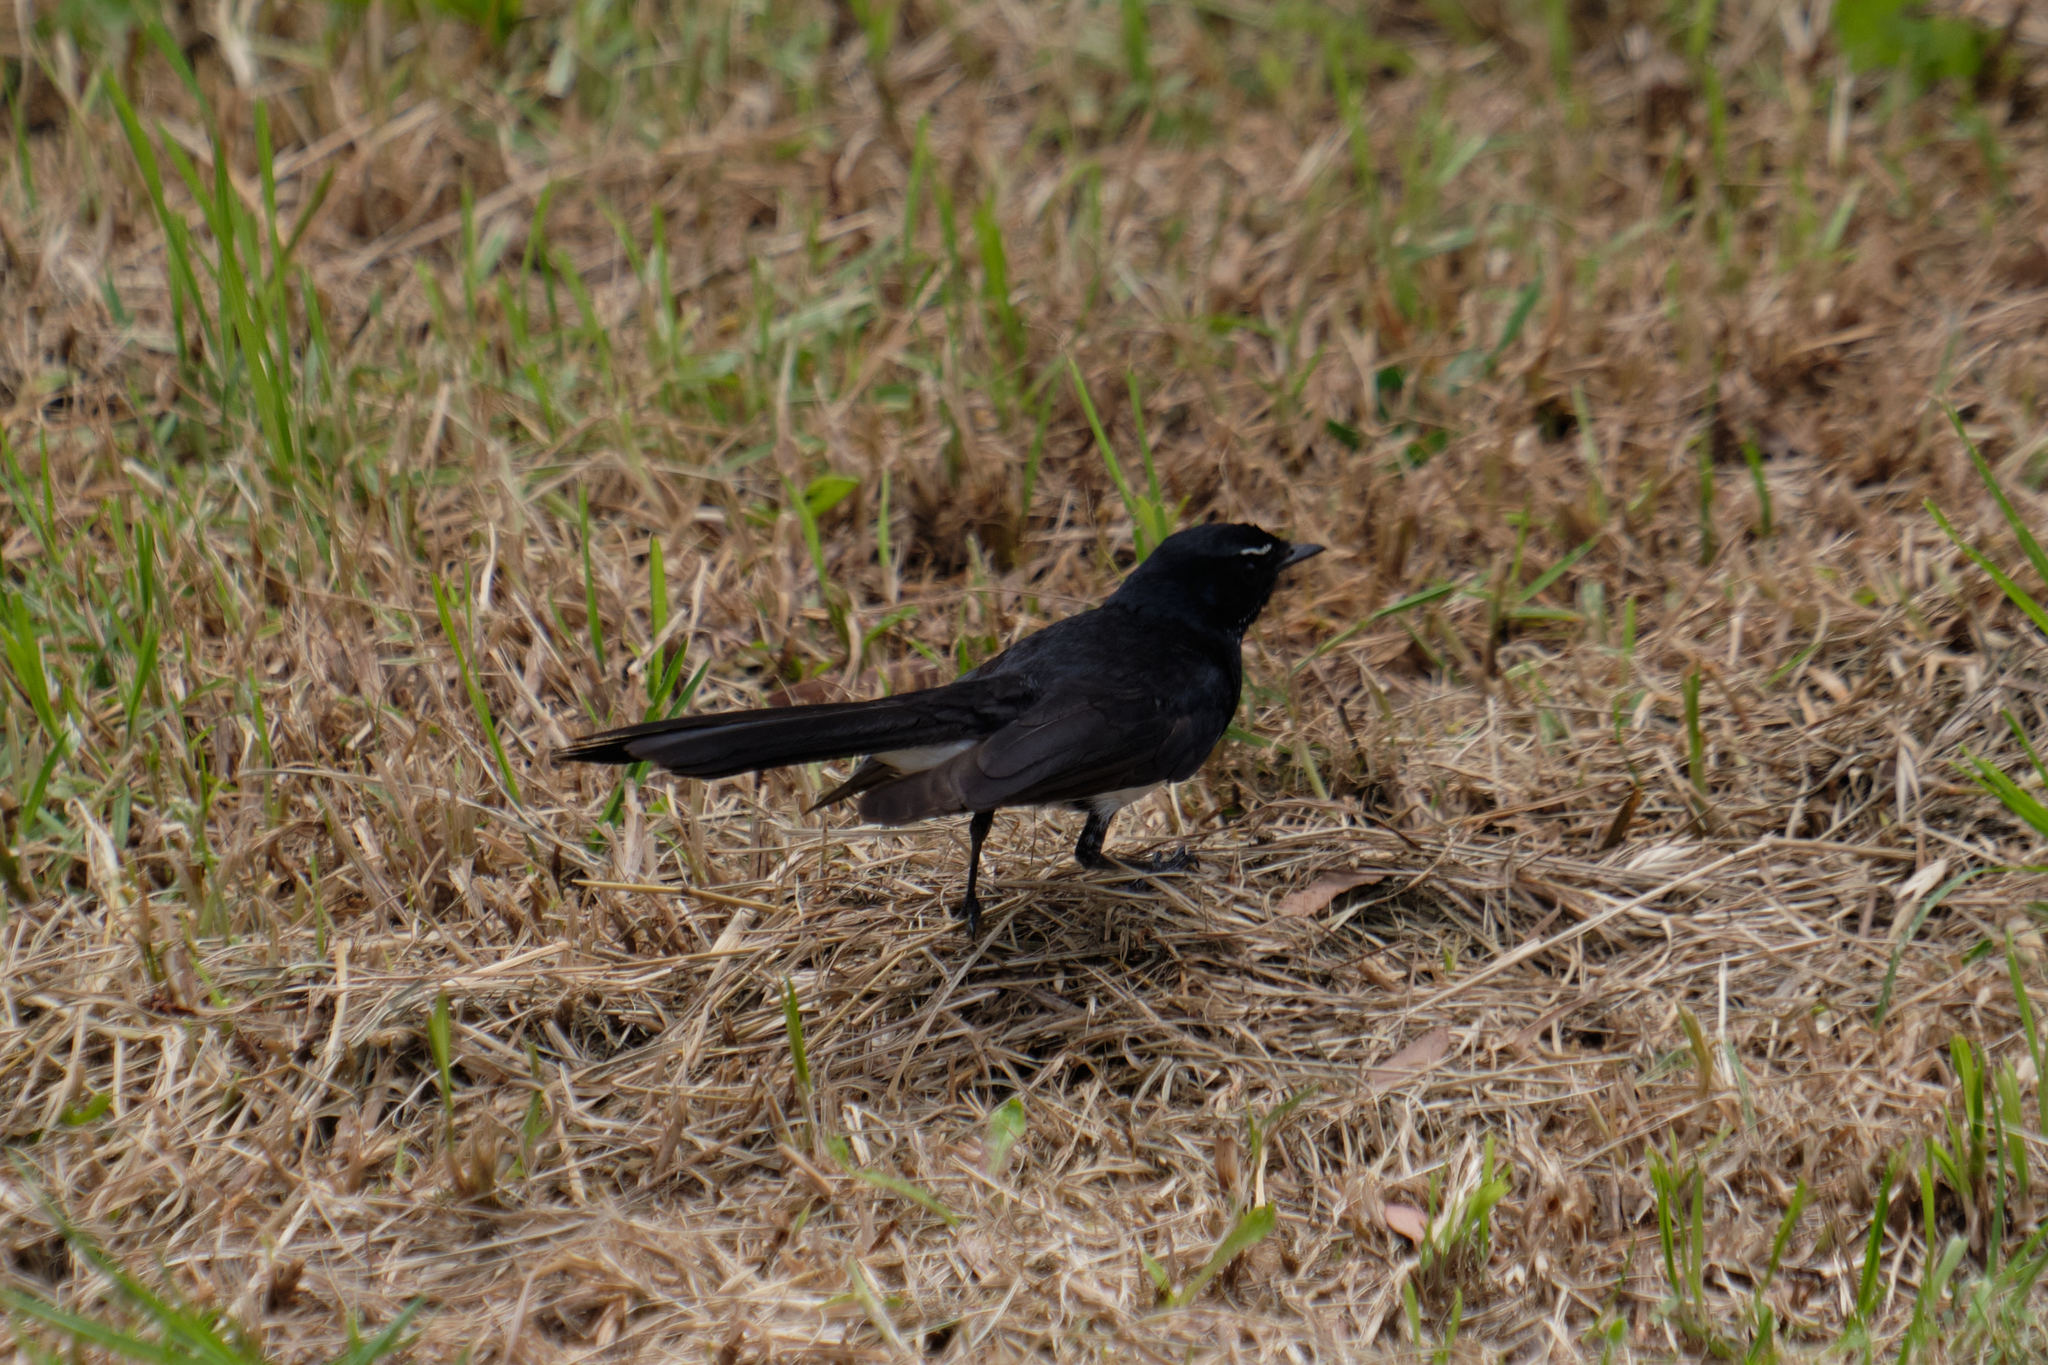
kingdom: Animalia
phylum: Chordata
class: Aves
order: Passeriformes
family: Rhipiduridae
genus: Rhipidura
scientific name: Rhipidura leucophrys
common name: Willie wagtail
